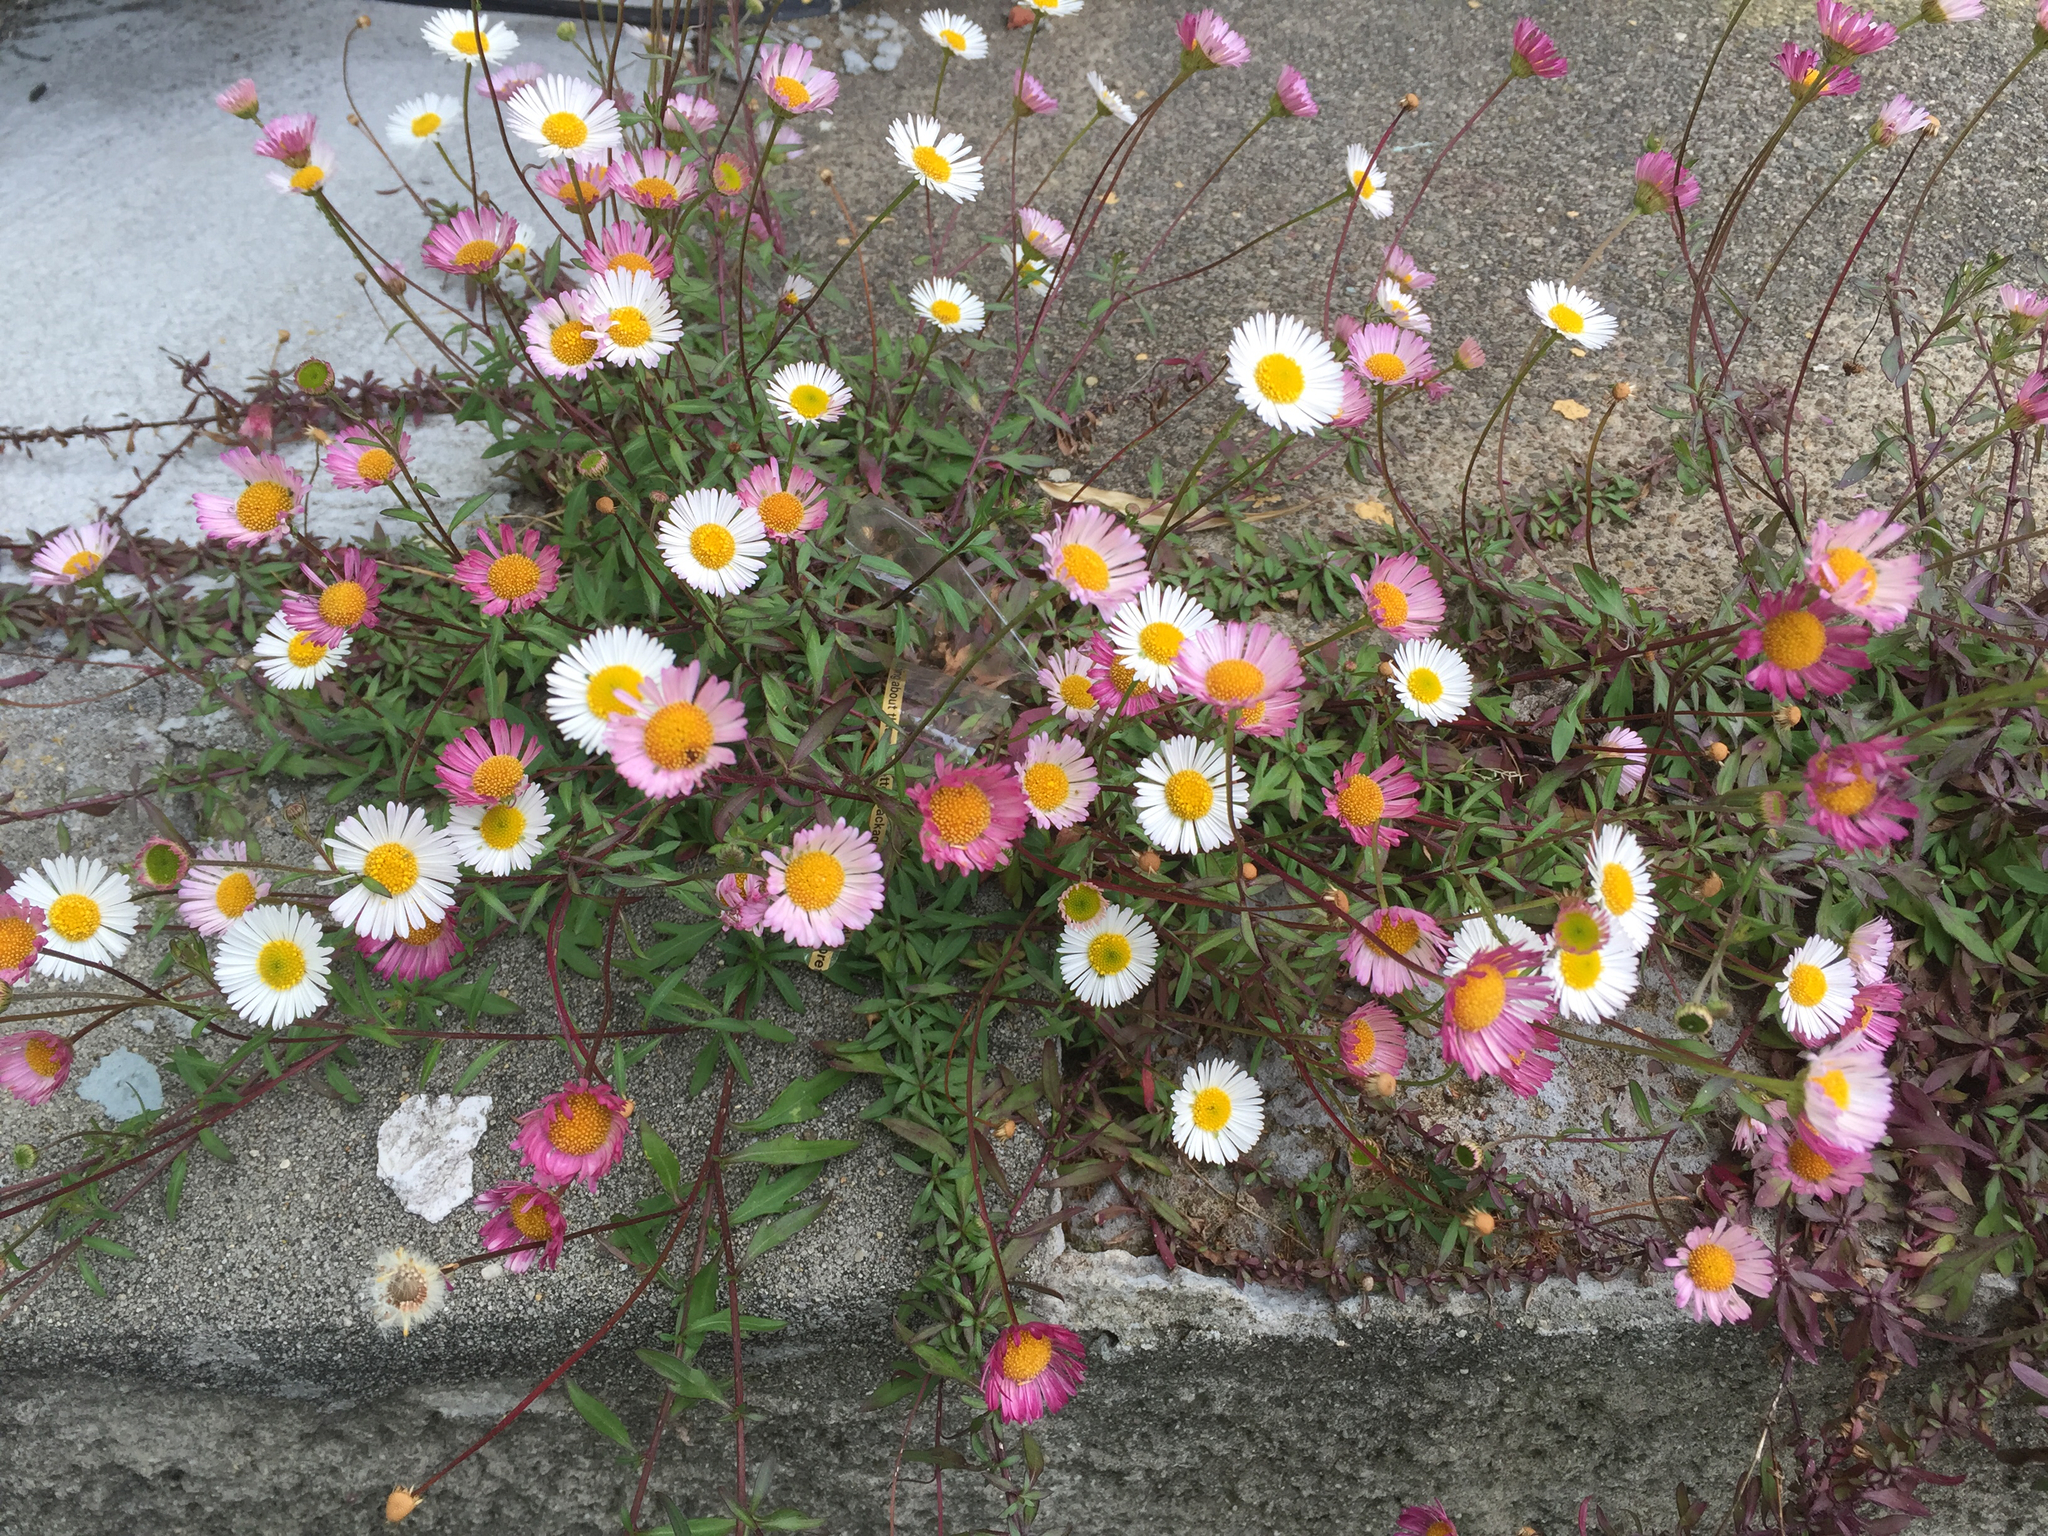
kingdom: Plantae
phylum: Tracheophyta
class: Magnoliopsida
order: Asterales
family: Asteraceae
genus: Erigeron
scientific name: Erigeron karvinskianus
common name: Mexican fleabane
